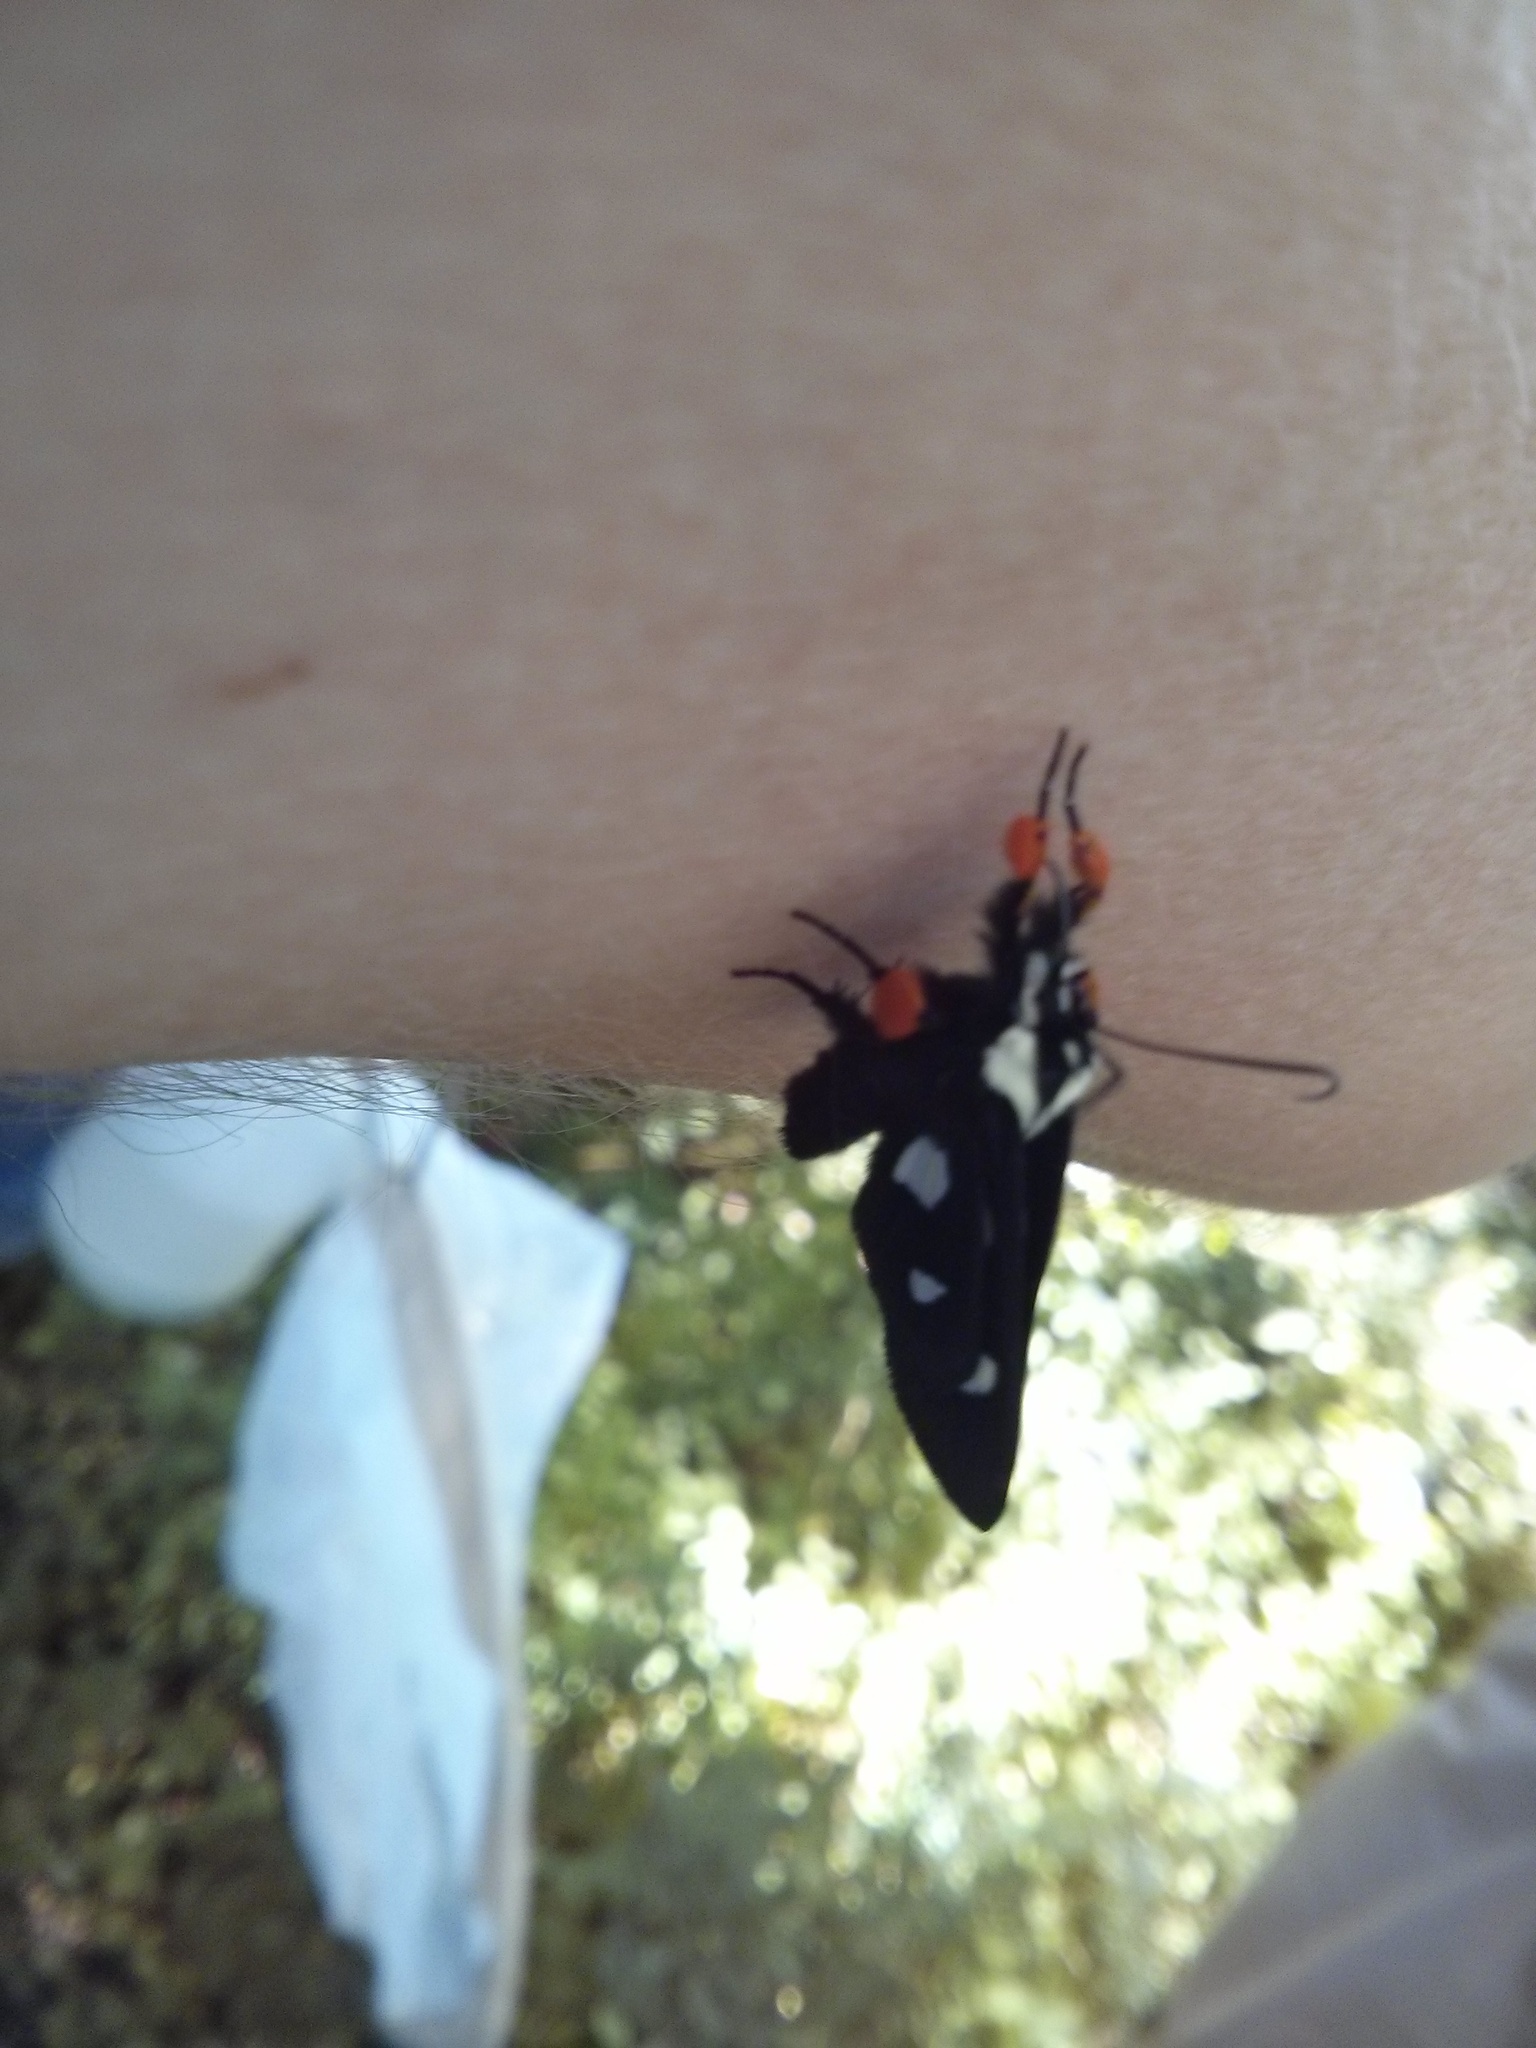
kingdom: Animalia
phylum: Arthropoda
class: Insecta
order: Lepidoptera
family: Noctuidae
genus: Alypia
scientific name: Alypia octomaculata
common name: Eight-spotted forester
